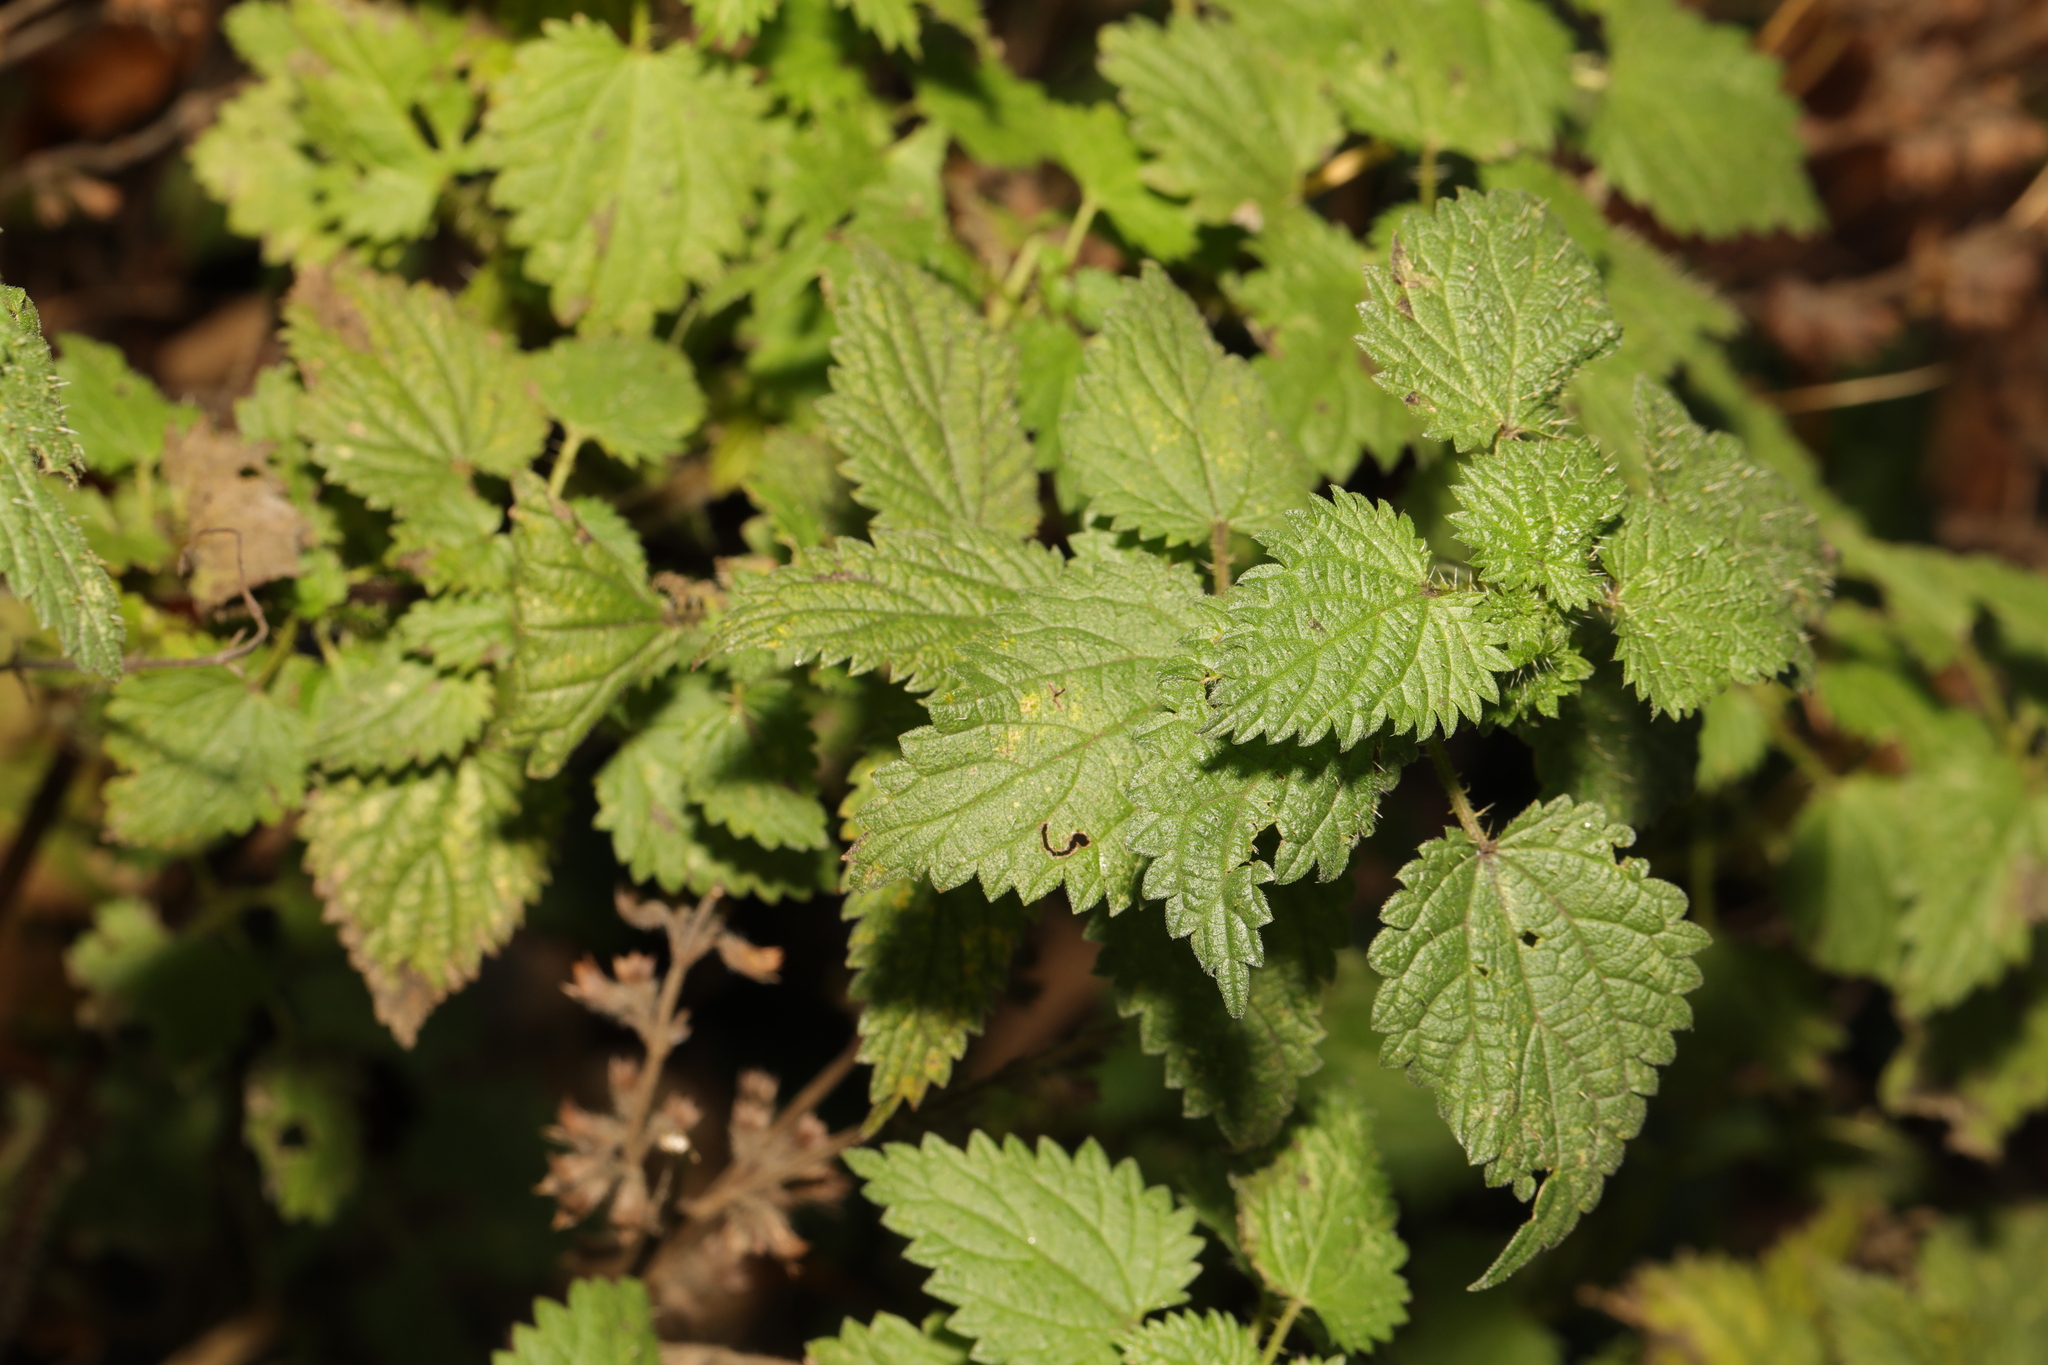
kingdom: Plantae
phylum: Tracheophyta
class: Magnoliopsida
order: Rosales
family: Urticaceae
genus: Urtica
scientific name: Urtica dioica
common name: Common nettle
